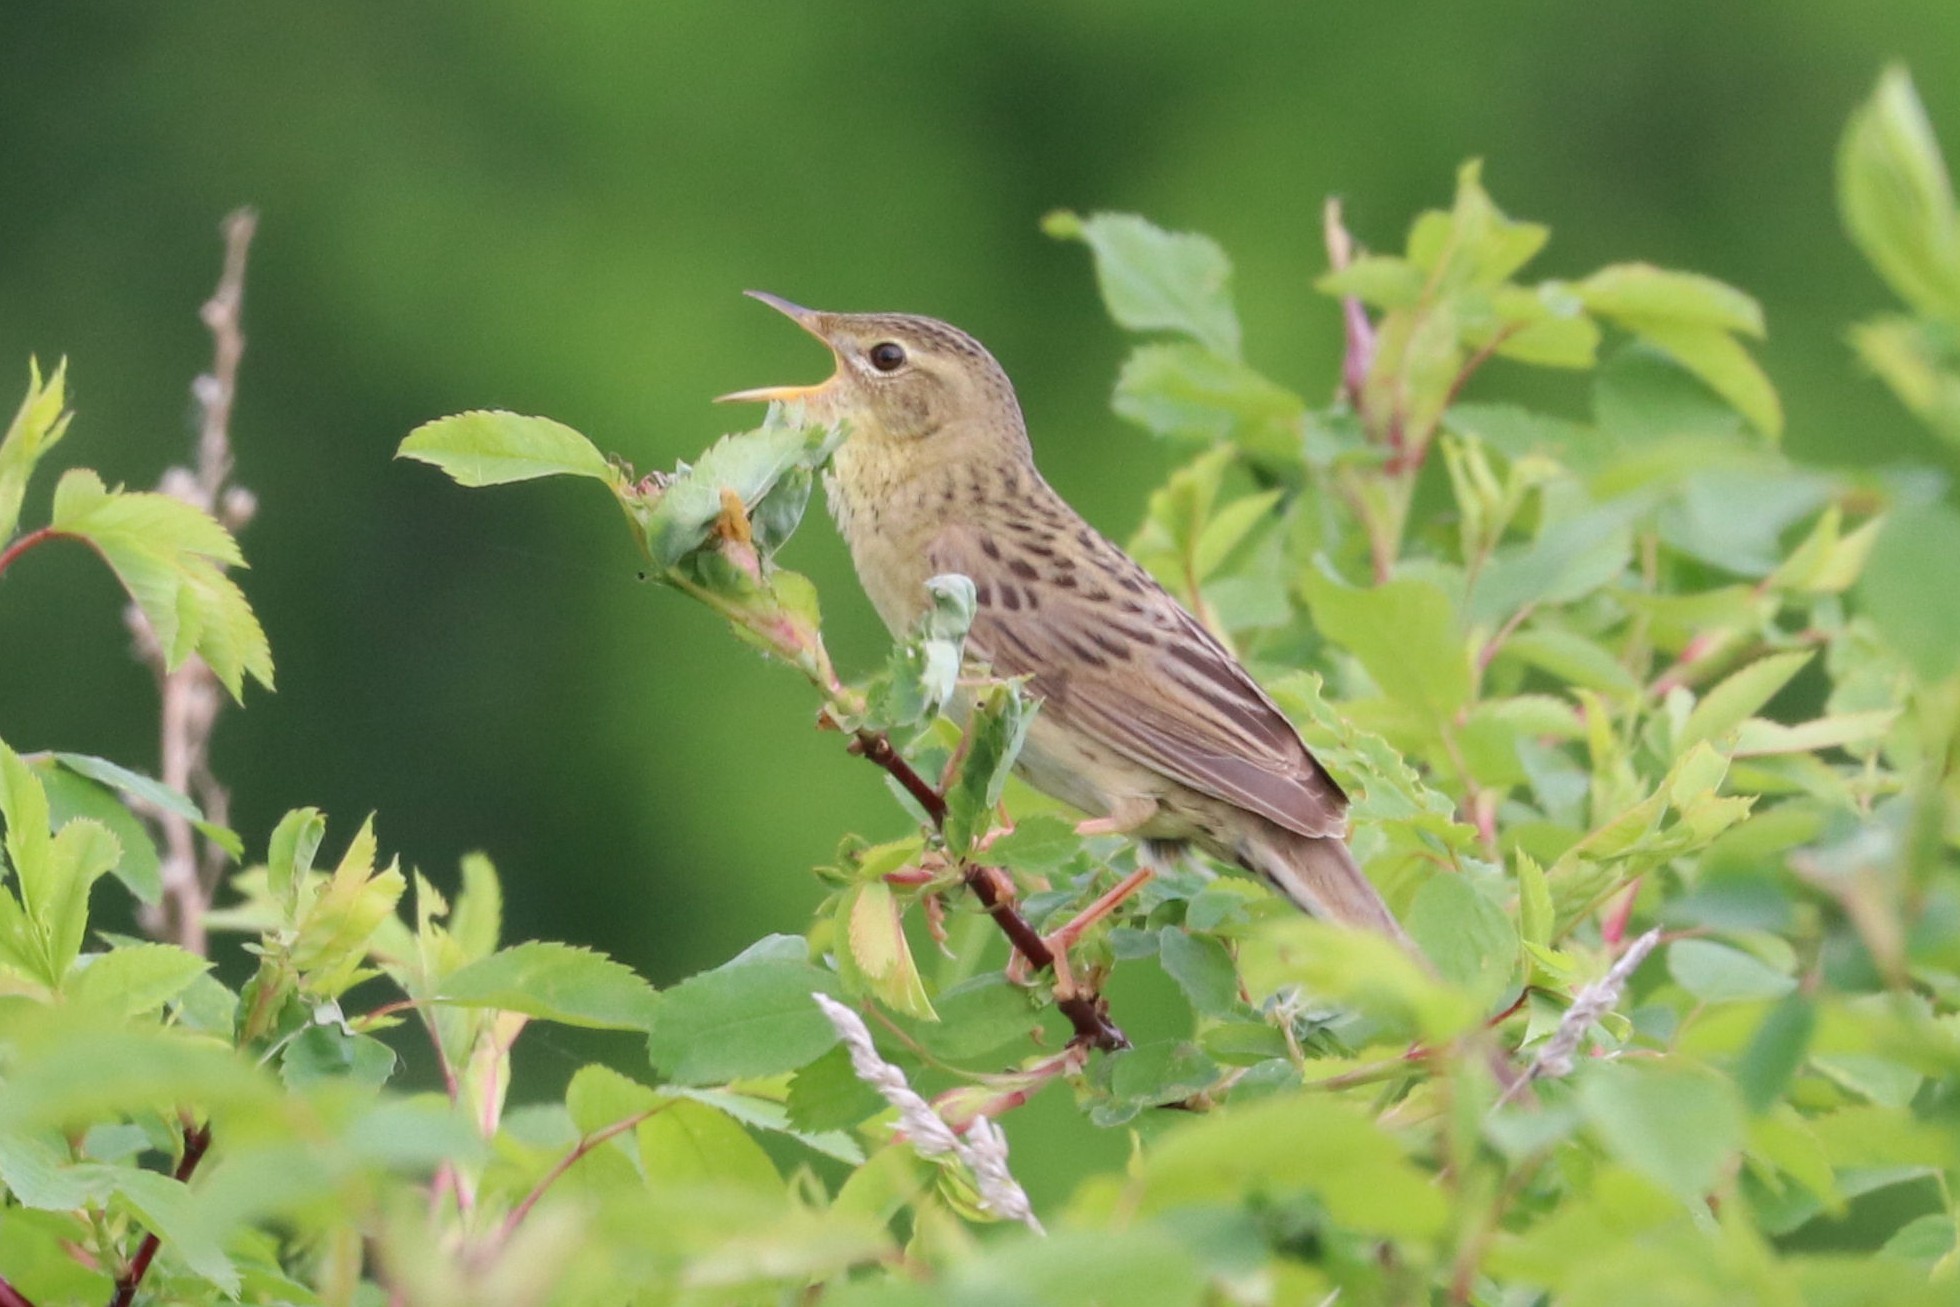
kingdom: Animalia
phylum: Chordata
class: Aves
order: Passeriformes
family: Locustellidae
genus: Locustella
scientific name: Locustella naevia
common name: Common grasshopper warbler
